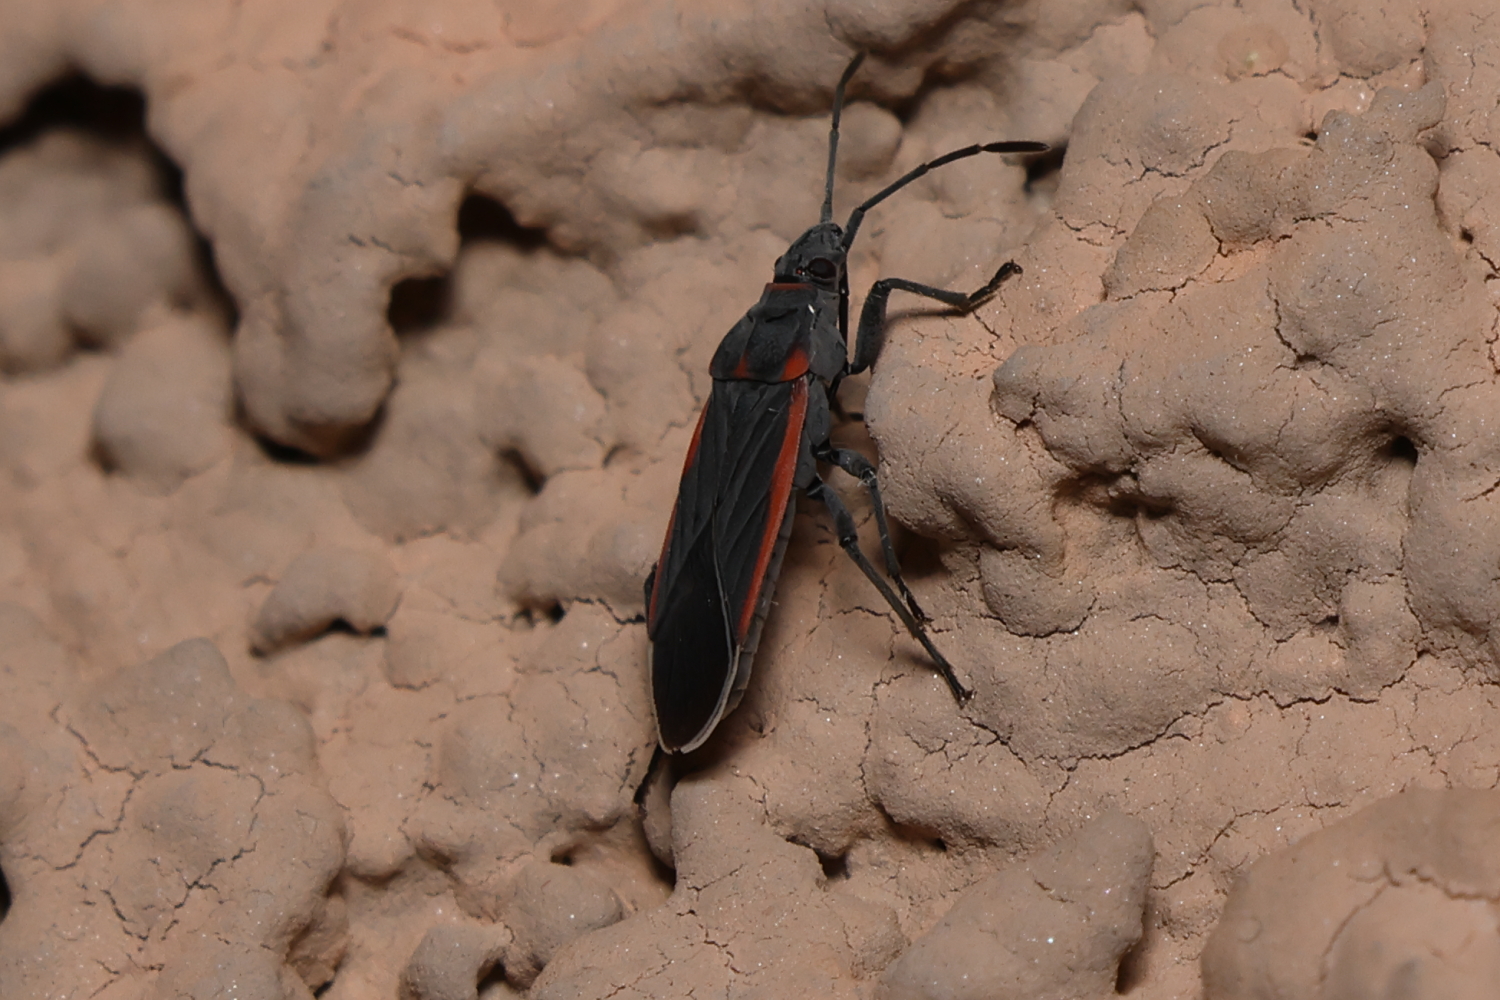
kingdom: Animalia
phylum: Arthropoda
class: Insecta
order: Hemiptera
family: Lygaeidae
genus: Melacoryphus
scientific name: Melacoryphus lateralis
